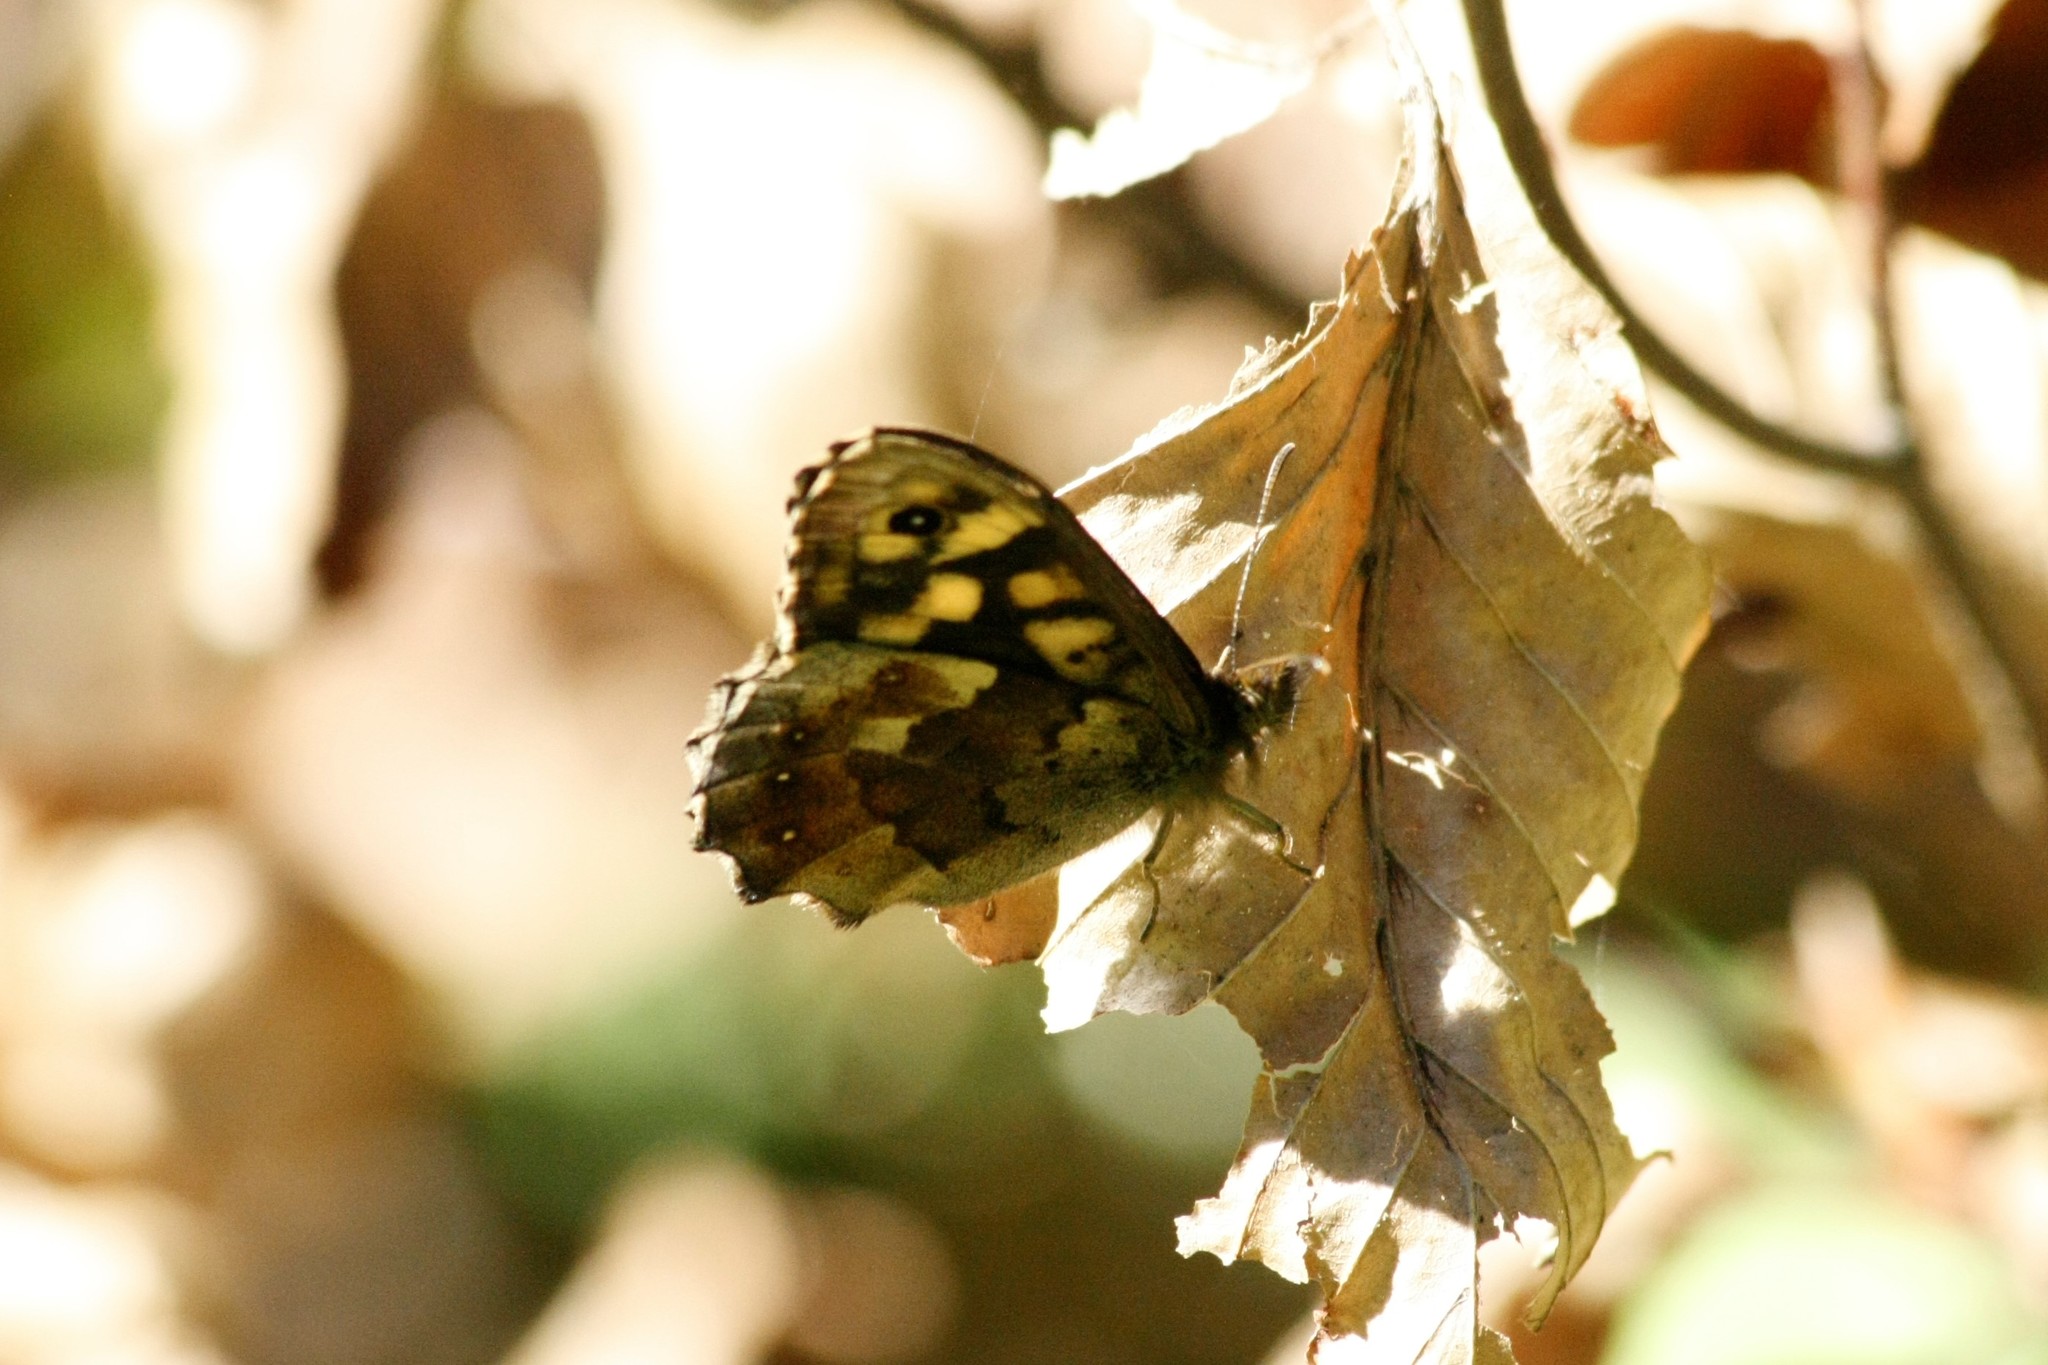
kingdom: Animalia
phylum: Arthropoda
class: Insecta
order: Lepidoptera
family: Nymphalidae
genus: Pararge
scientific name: Pararge aegeria
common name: Speckled wood
